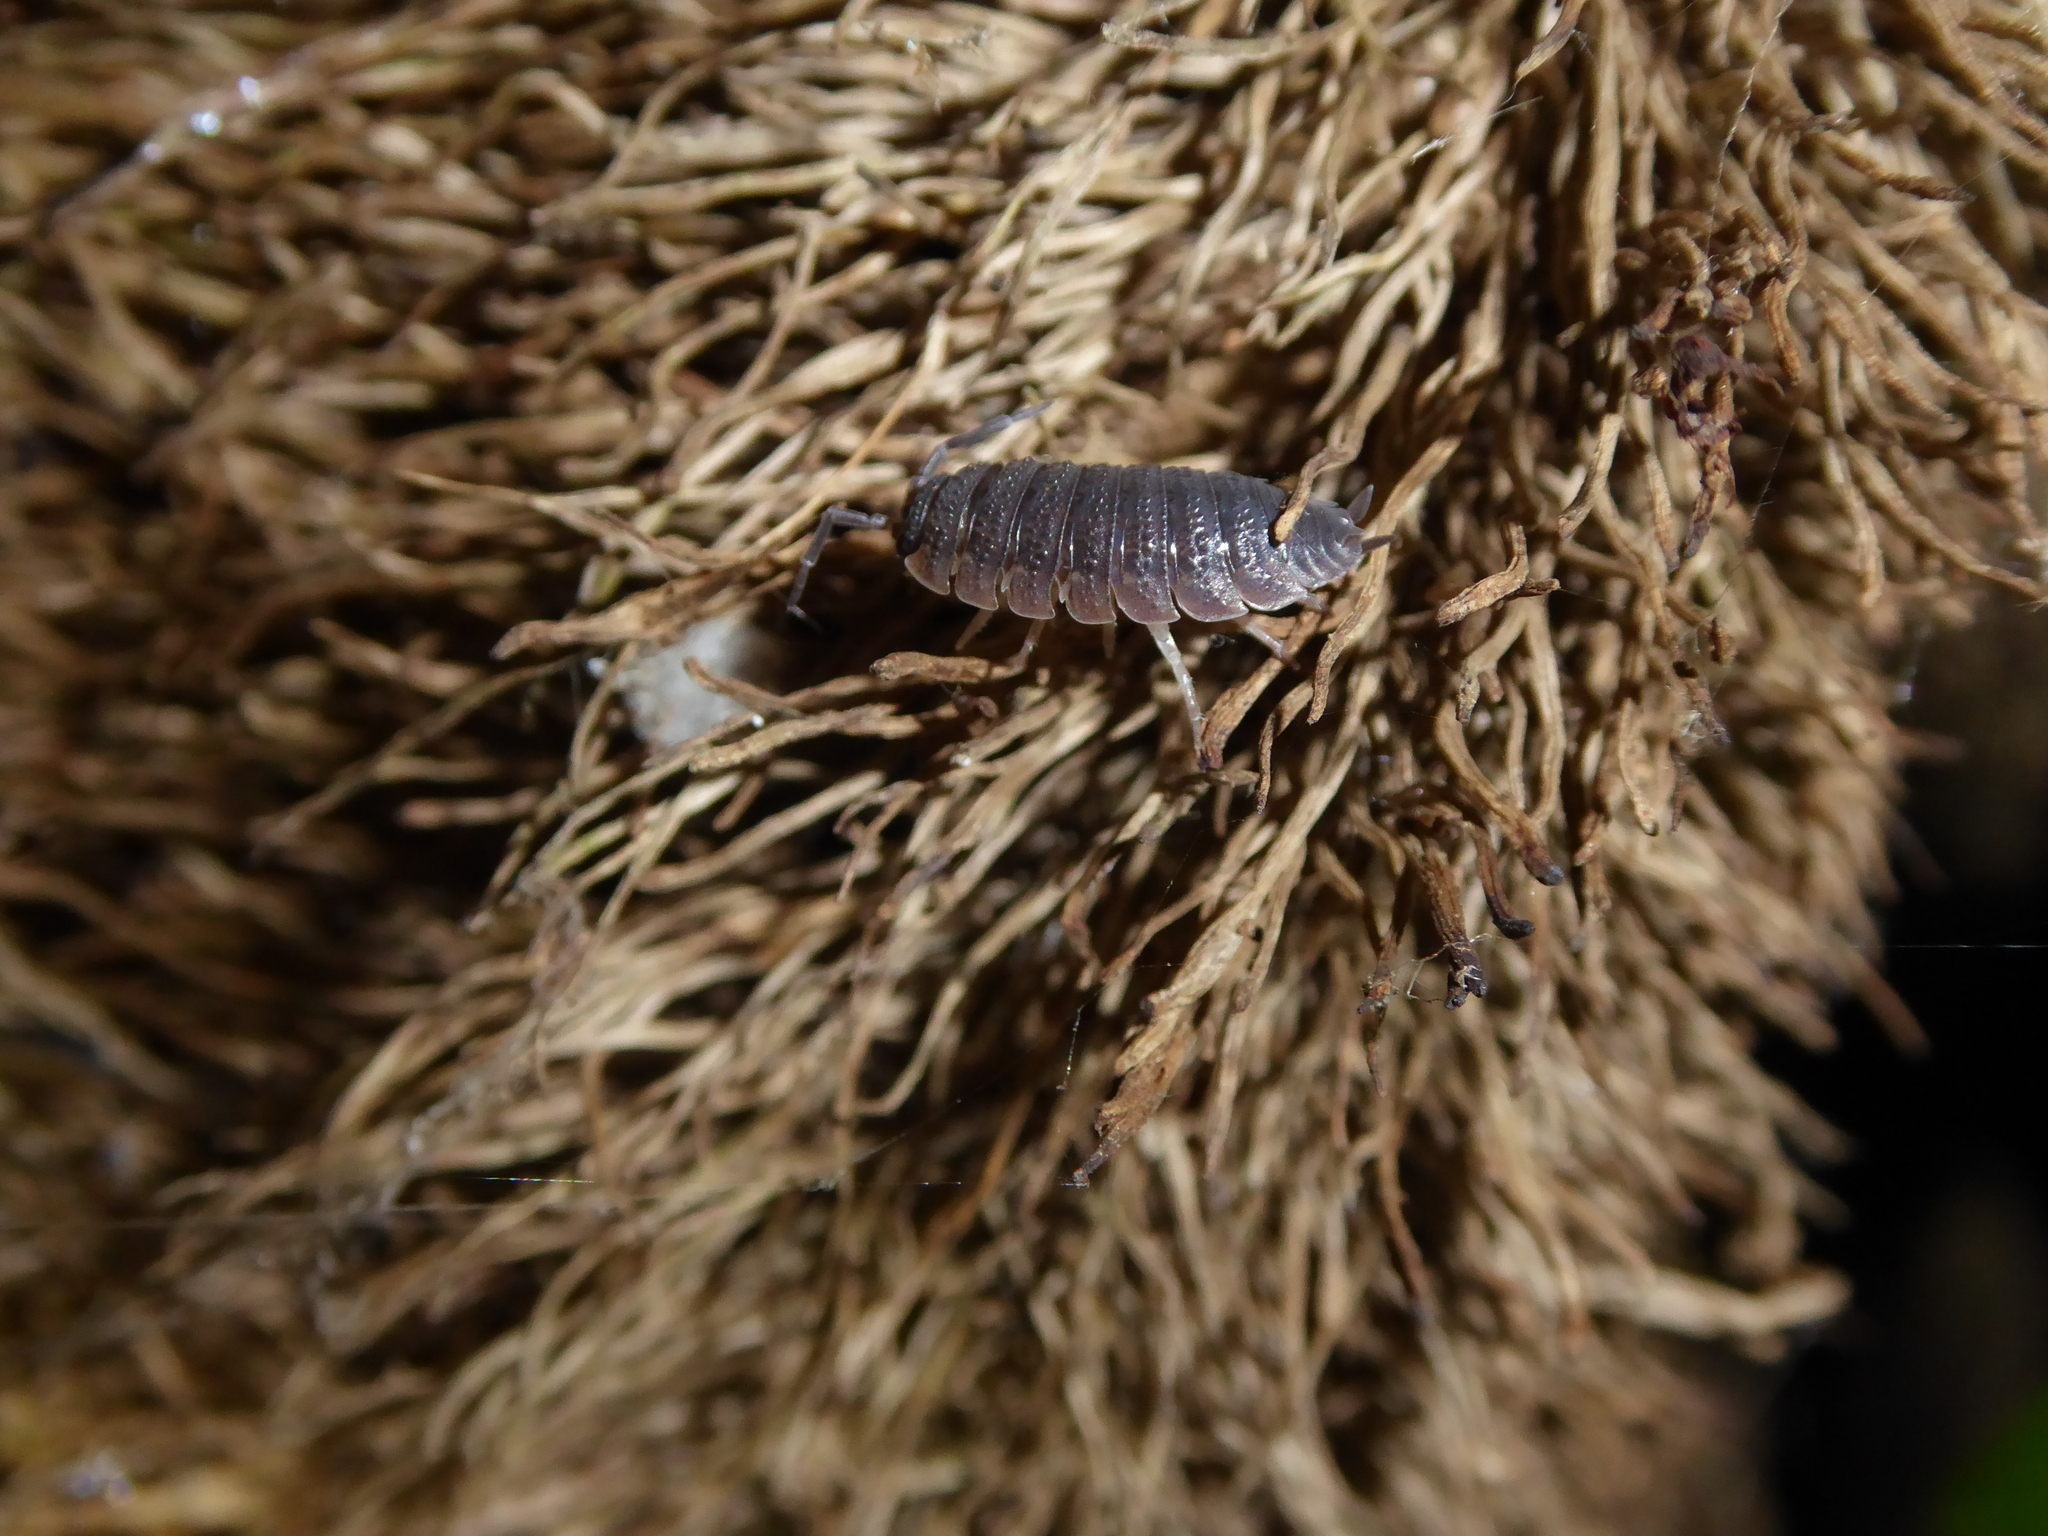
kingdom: Animalia
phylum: Arthropoda
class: Malacostraca
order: Isopoda
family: Porcellionidae
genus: Porcellio
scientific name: Porcellio scaber
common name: Common rough woodlouse
